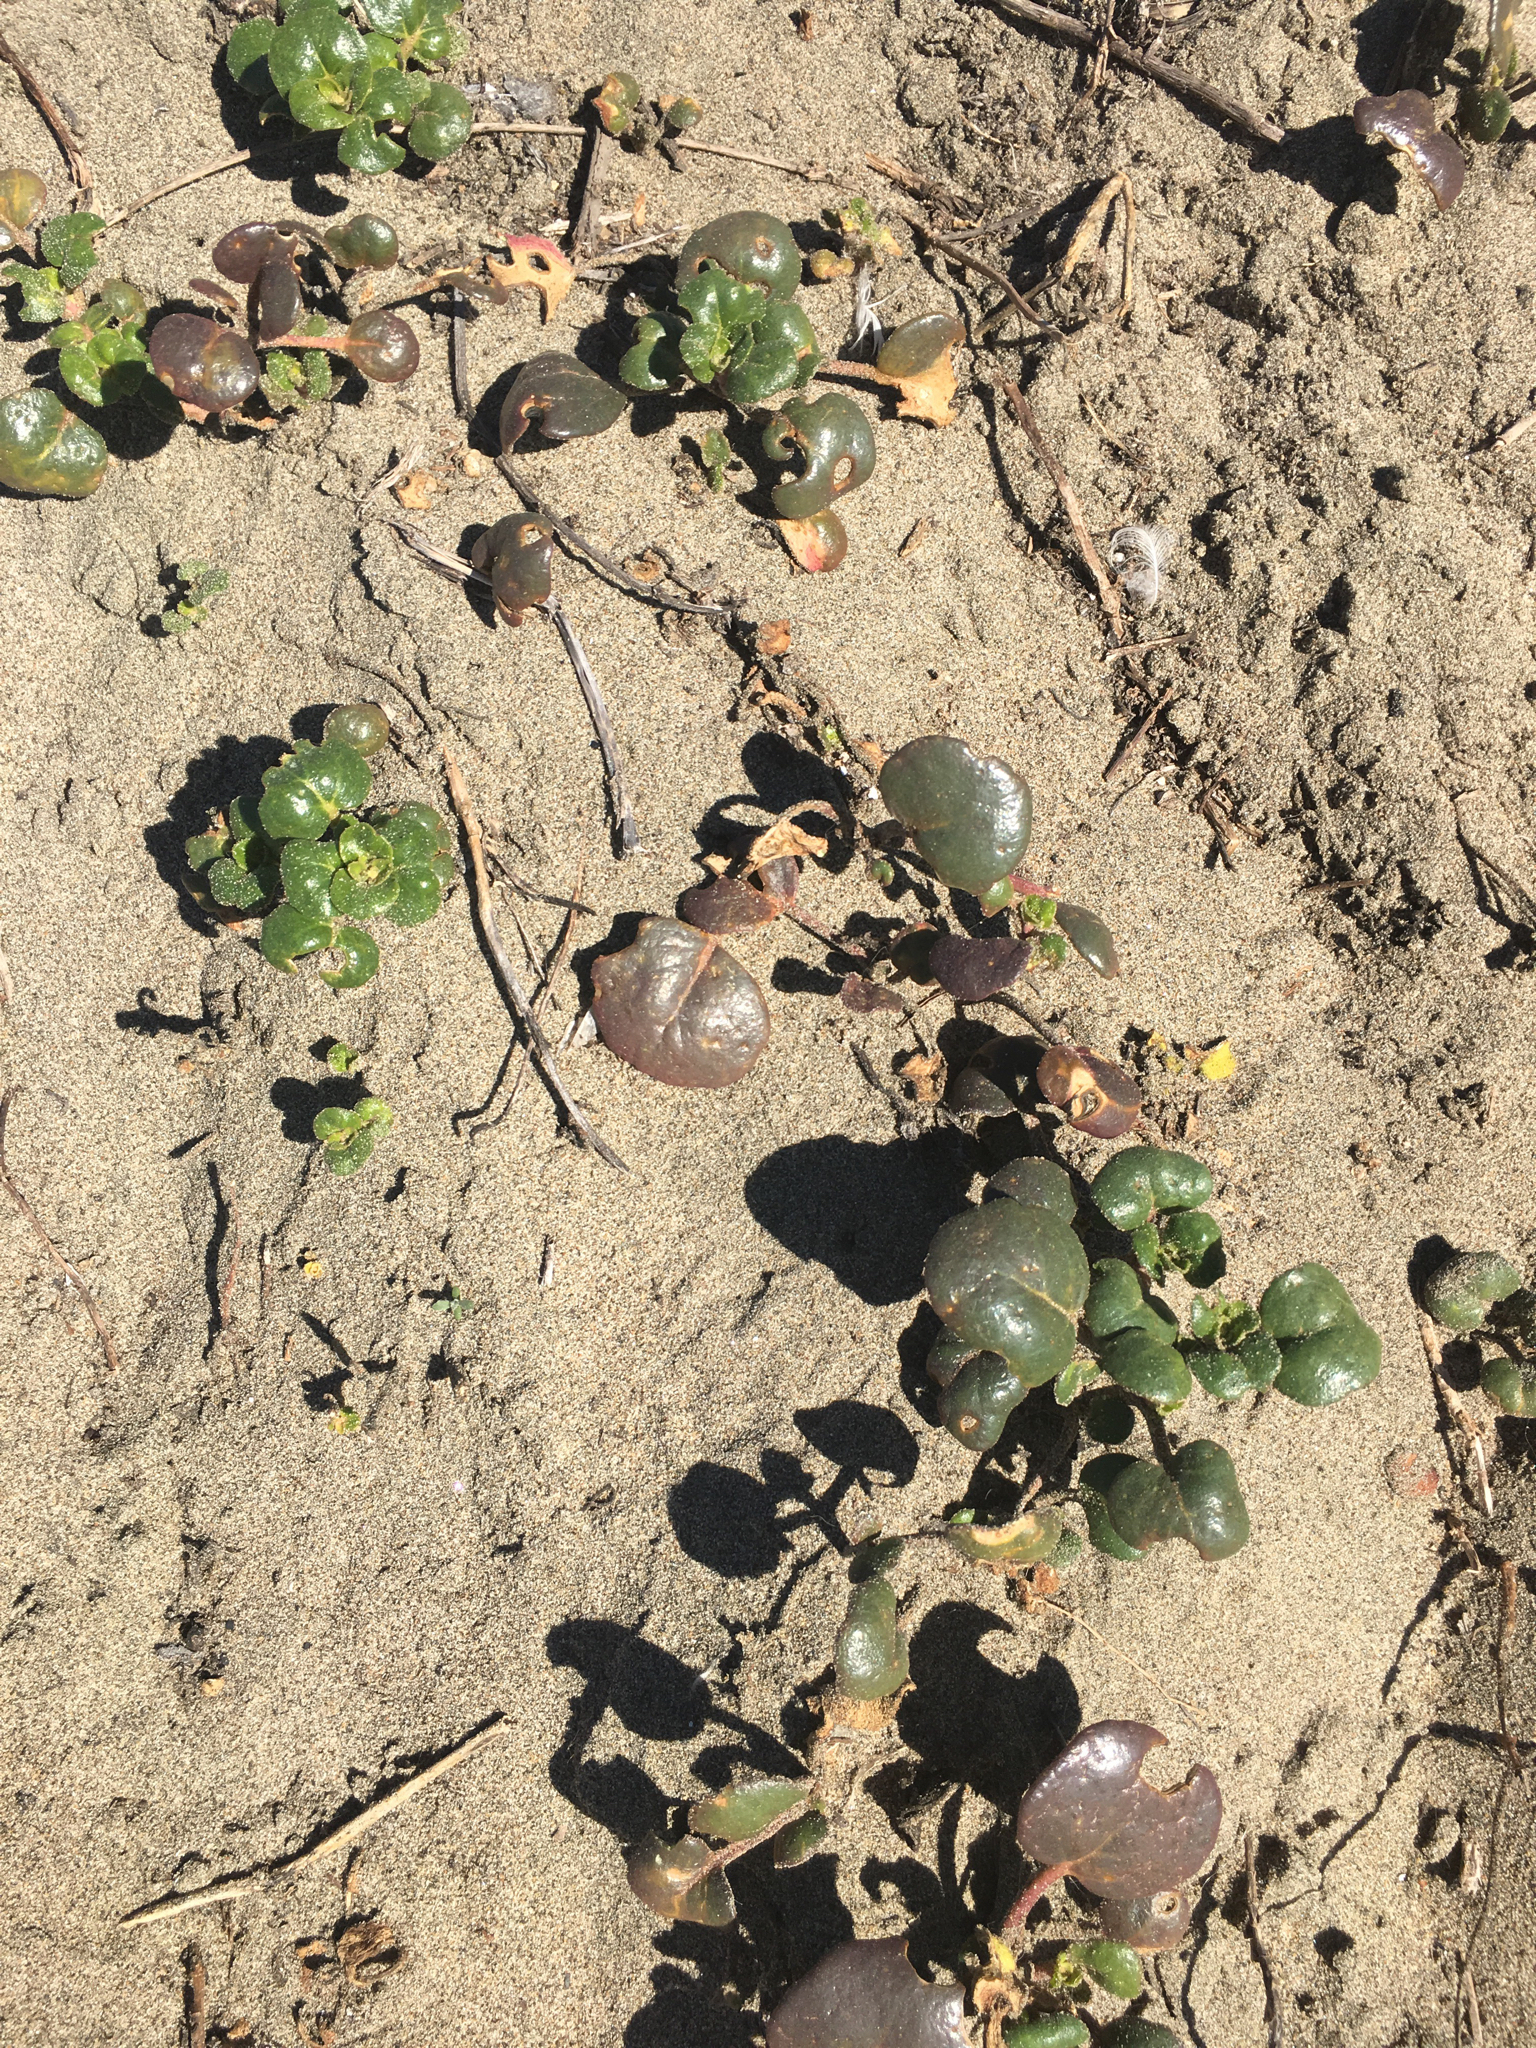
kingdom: Plantae
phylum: Tracheophyta
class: Magnoliopsida
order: Caryophyllales
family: Nyctaginaceae
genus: Abronia
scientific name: Abronia latifolia
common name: Yellow sand-verbena
